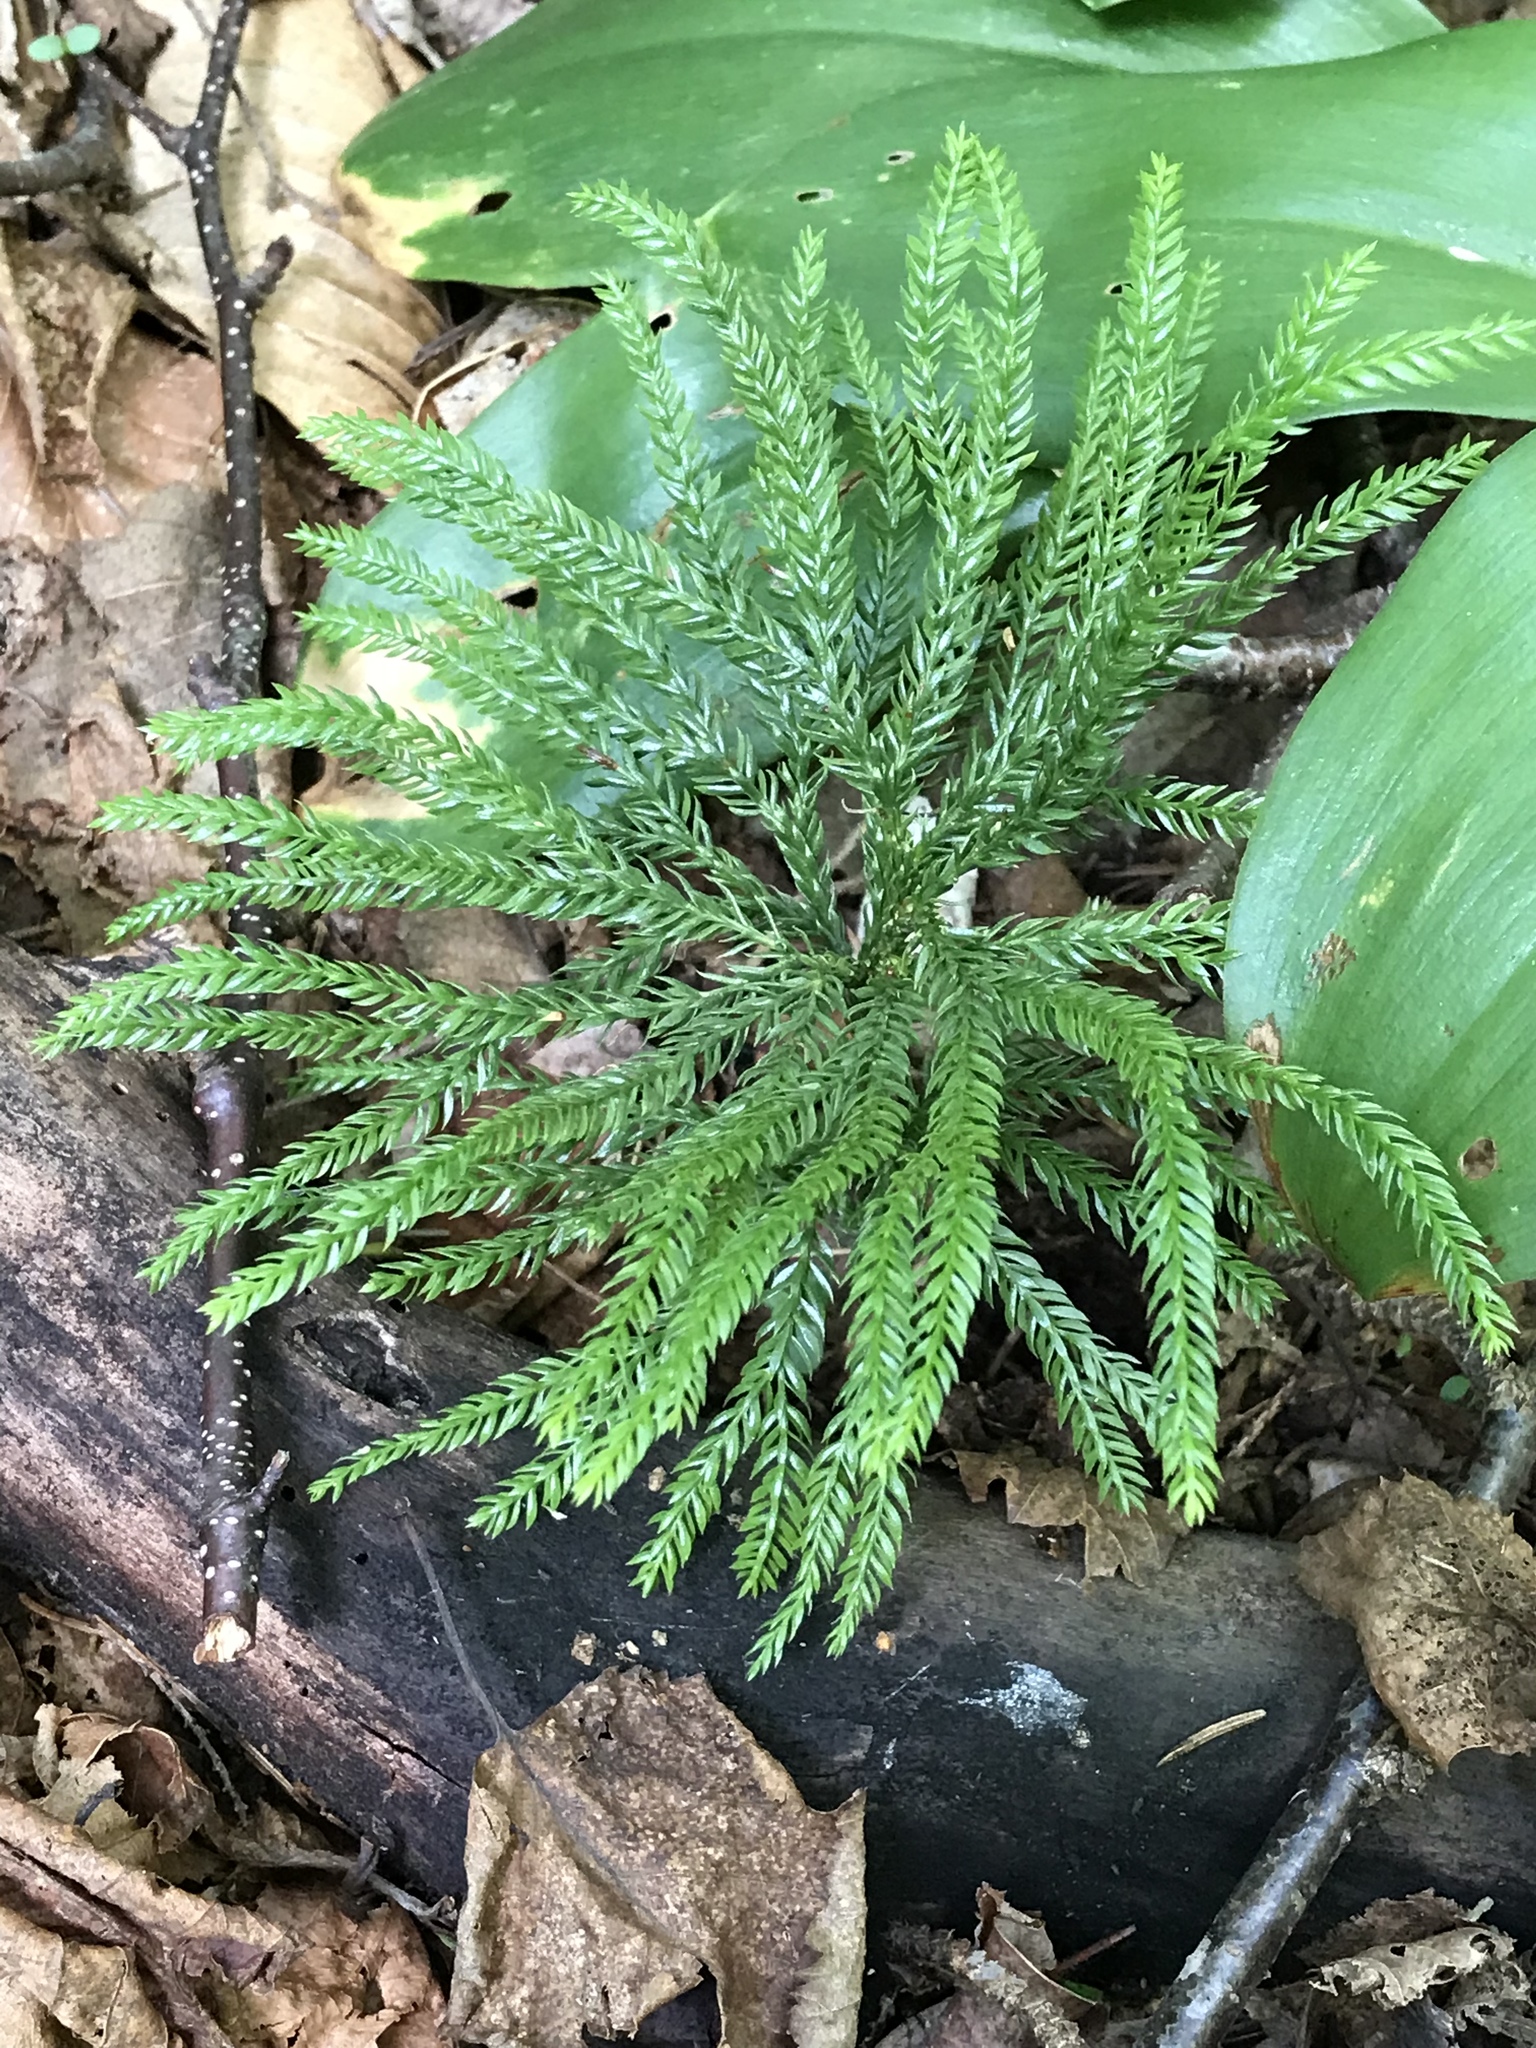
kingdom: Plantae
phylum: Tracheophyta
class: Lycopodiopsida
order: Lycopodiales
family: Lycopodiaceae
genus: Dendrolycopodium
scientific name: Dendrolycopodium obscurum
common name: Common ground-pine
